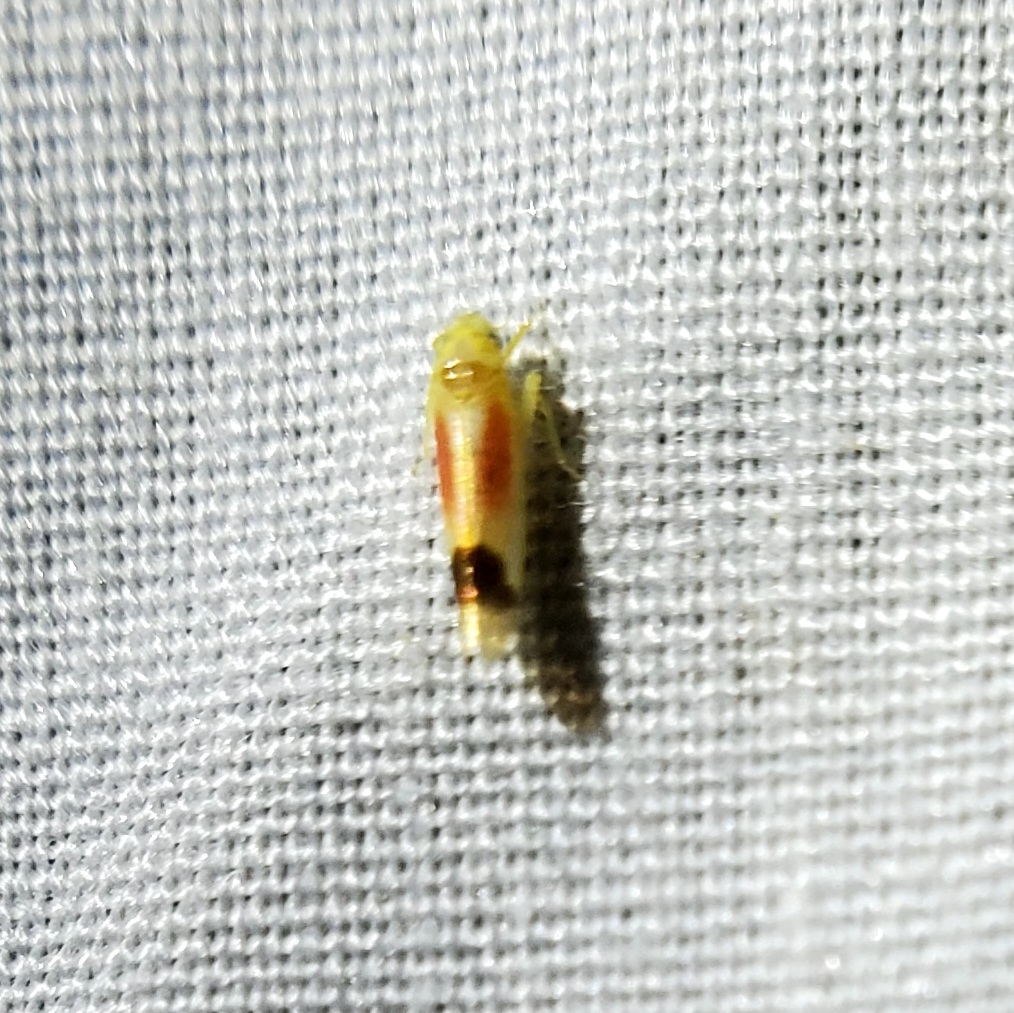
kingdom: Animalia
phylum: Arthropoda
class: Insecta
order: Hemiptera
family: Cicadellidae
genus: Ossiannilssonola
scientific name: Ossiannilssonola flavomarginata
